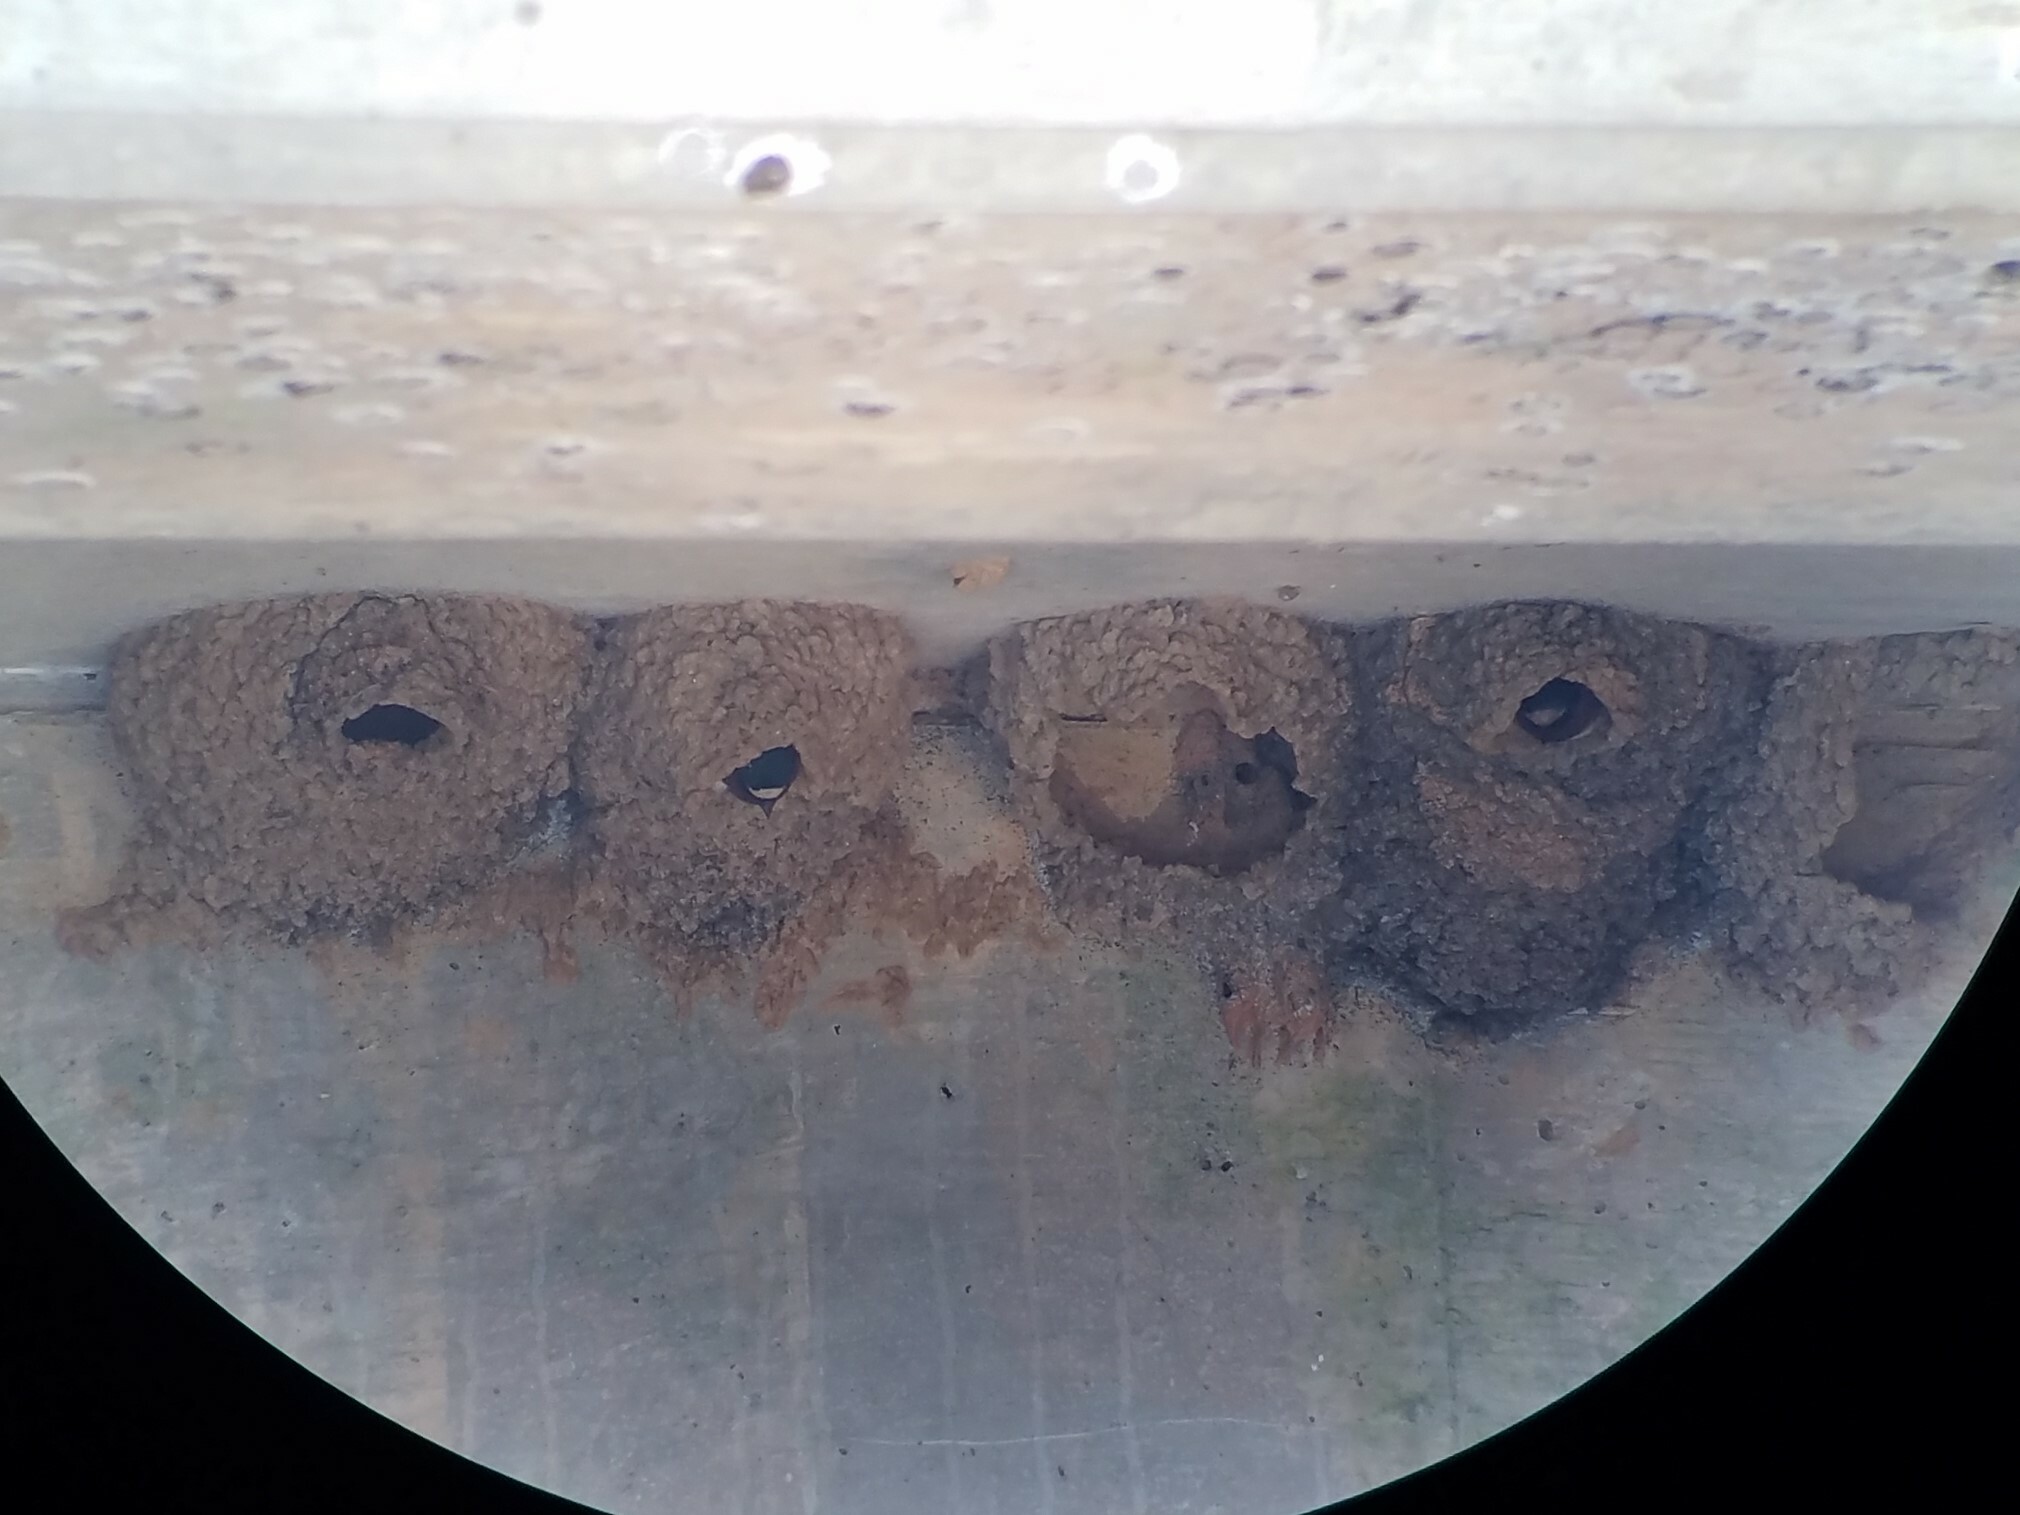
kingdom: Animalia
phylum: Chordata
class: Aves
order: Passeriformes
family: Hirundinidae
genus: Petrochelidon
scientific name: Petrochelidon pyrrhonota
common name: American cliff swallow
